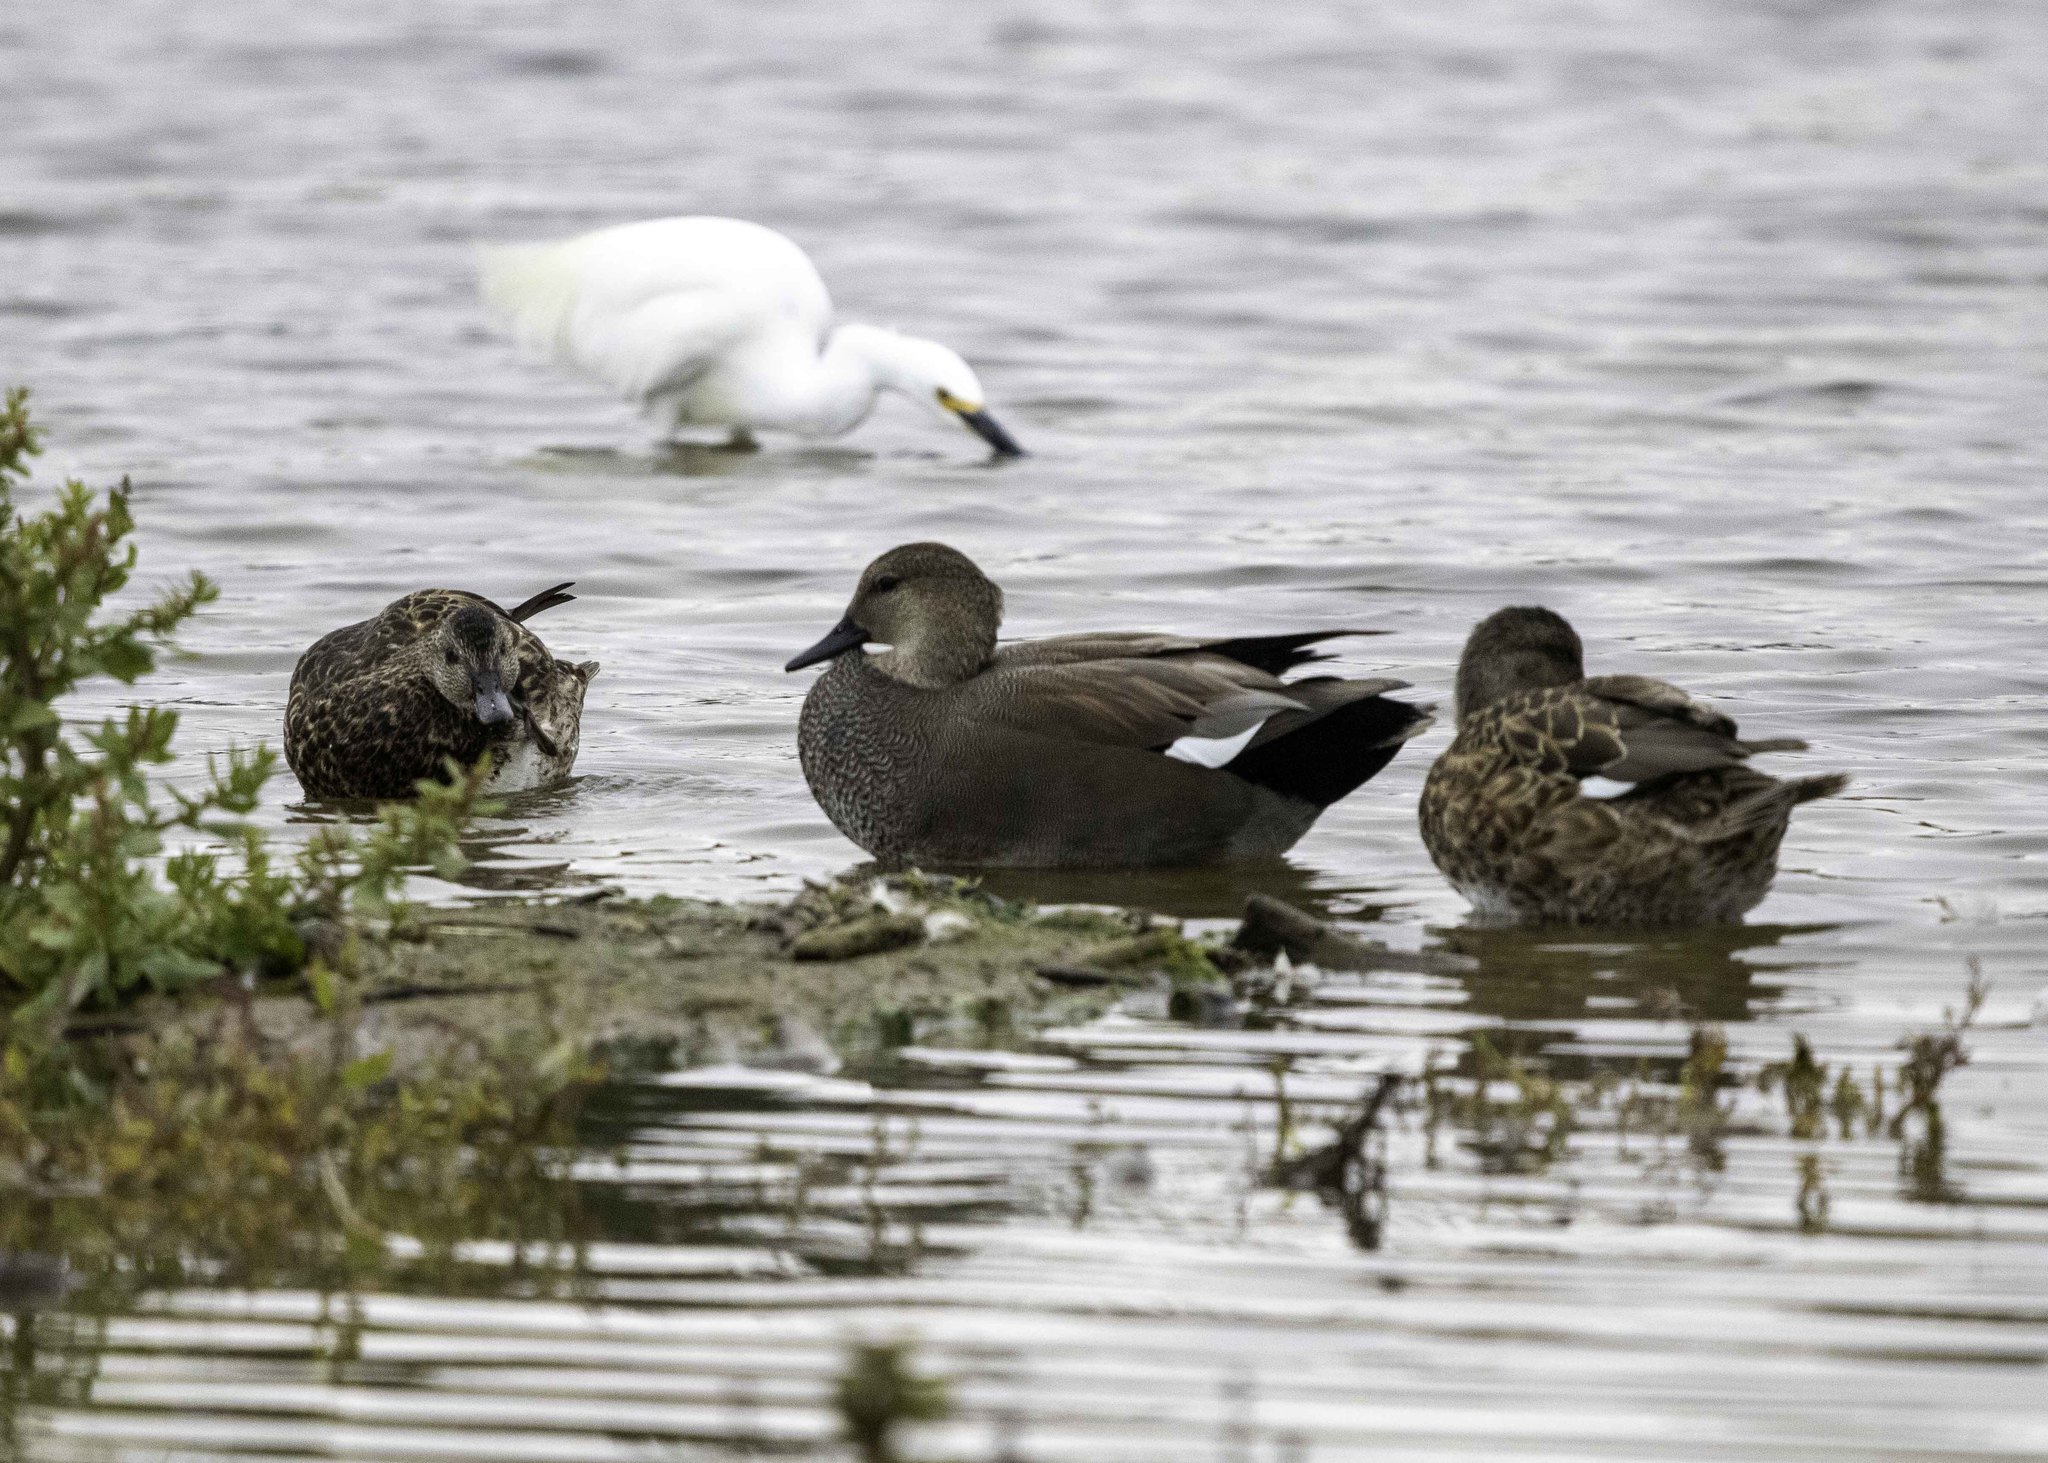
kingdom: Animalia
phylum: Chordata
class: Aves
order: Anseriformes
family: Anatidae
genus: Mareca
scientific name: Mareca strepera
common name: Gadwall
